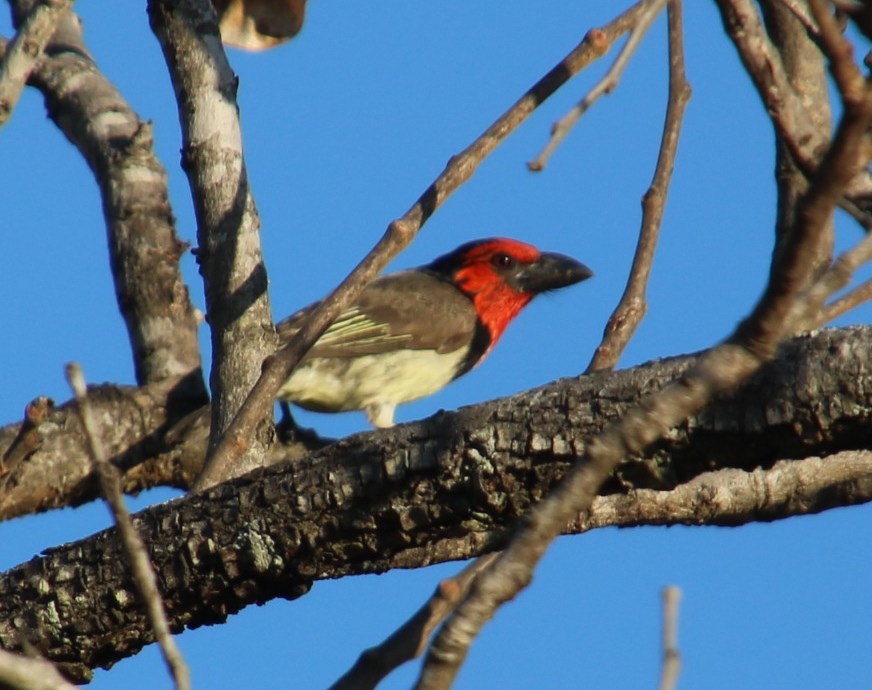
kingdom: Animalia
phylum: Chordata
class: Aves
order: Piciformes
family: Lybiidae
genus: Lybius
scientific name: Lybius torquatus
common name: Black-collared barbet
